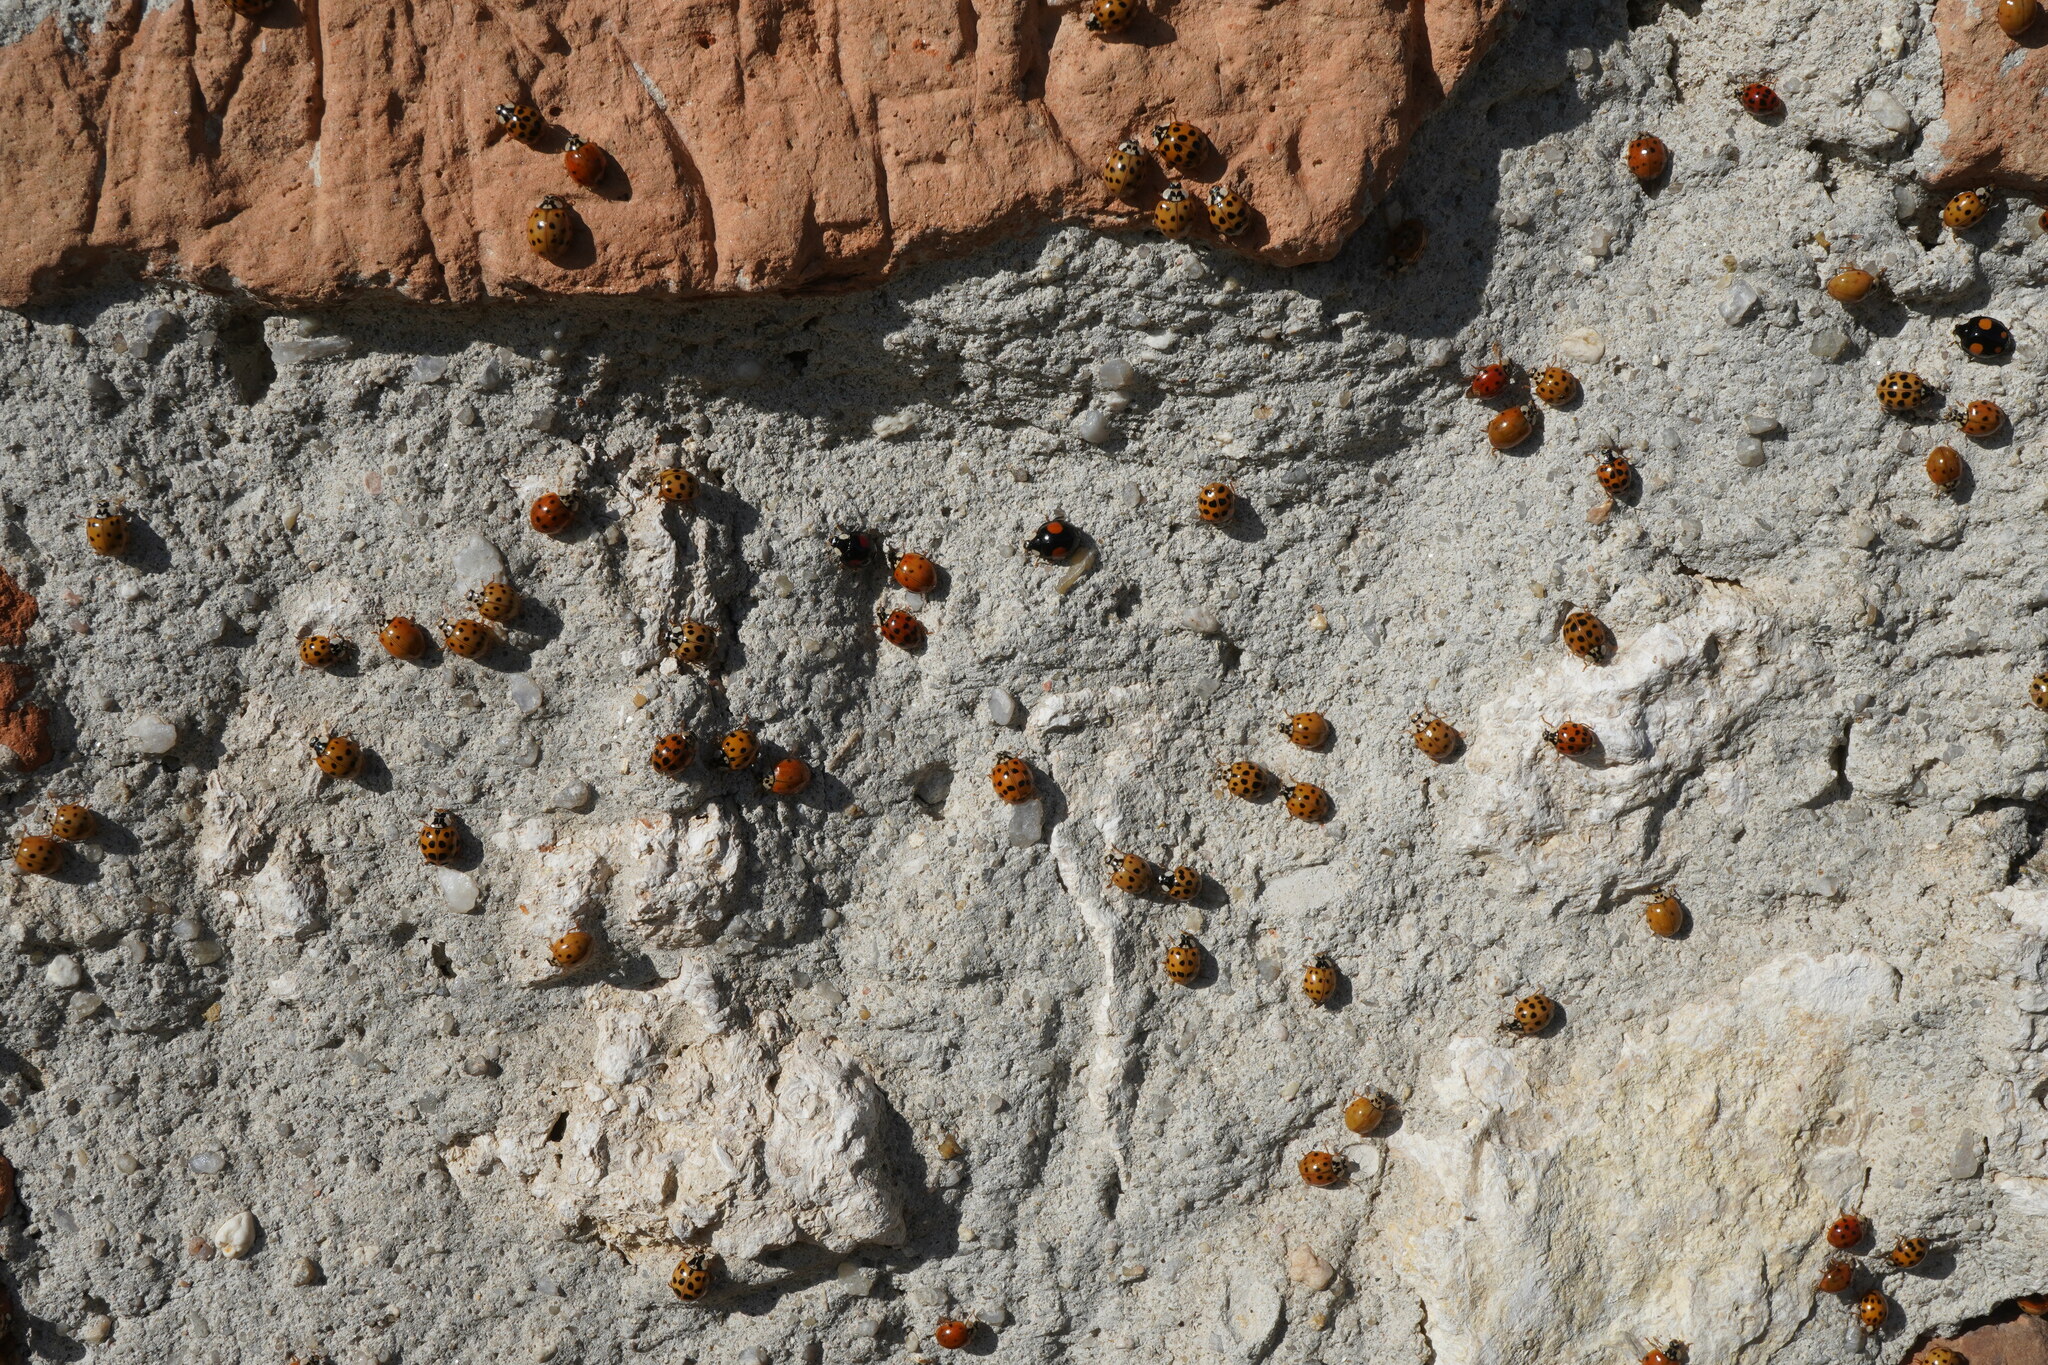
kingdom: Animalia
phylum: Arthropoda
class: Insecta
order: Coleoptera
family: Coccinellidae
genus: Harmonia
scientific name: Harmonia axyridis
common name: Harlequin ladybird
